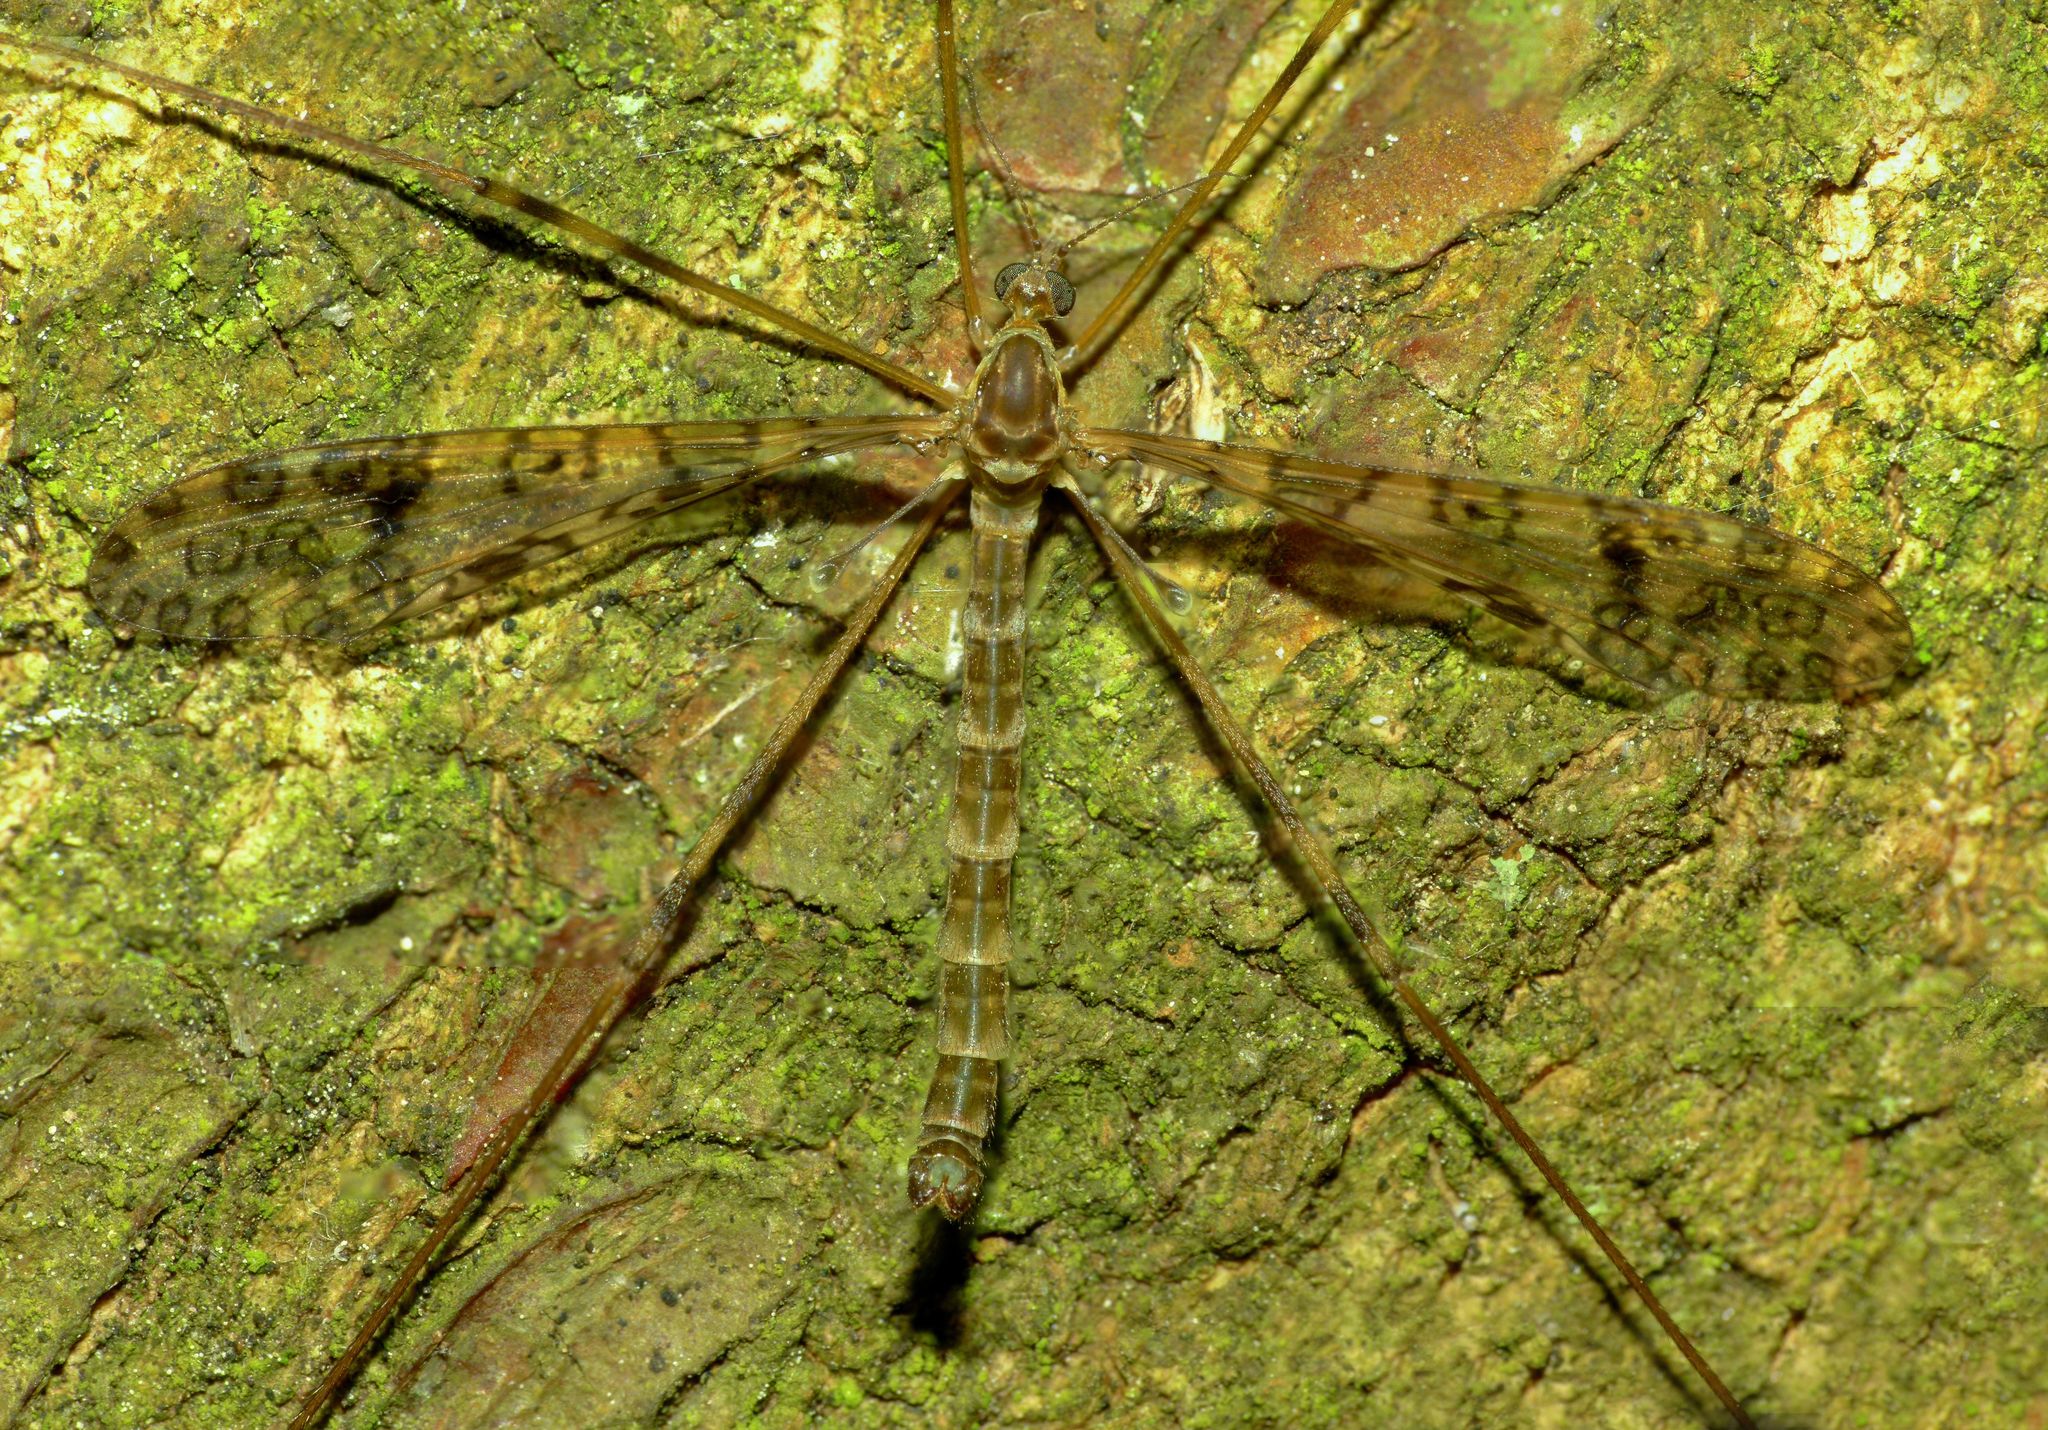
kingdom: Animalia
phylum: Arthropoda
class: Insecta
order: Diptera
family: Limoniidae
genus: Austrolimnophila
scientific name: Austrolimnophila argus
